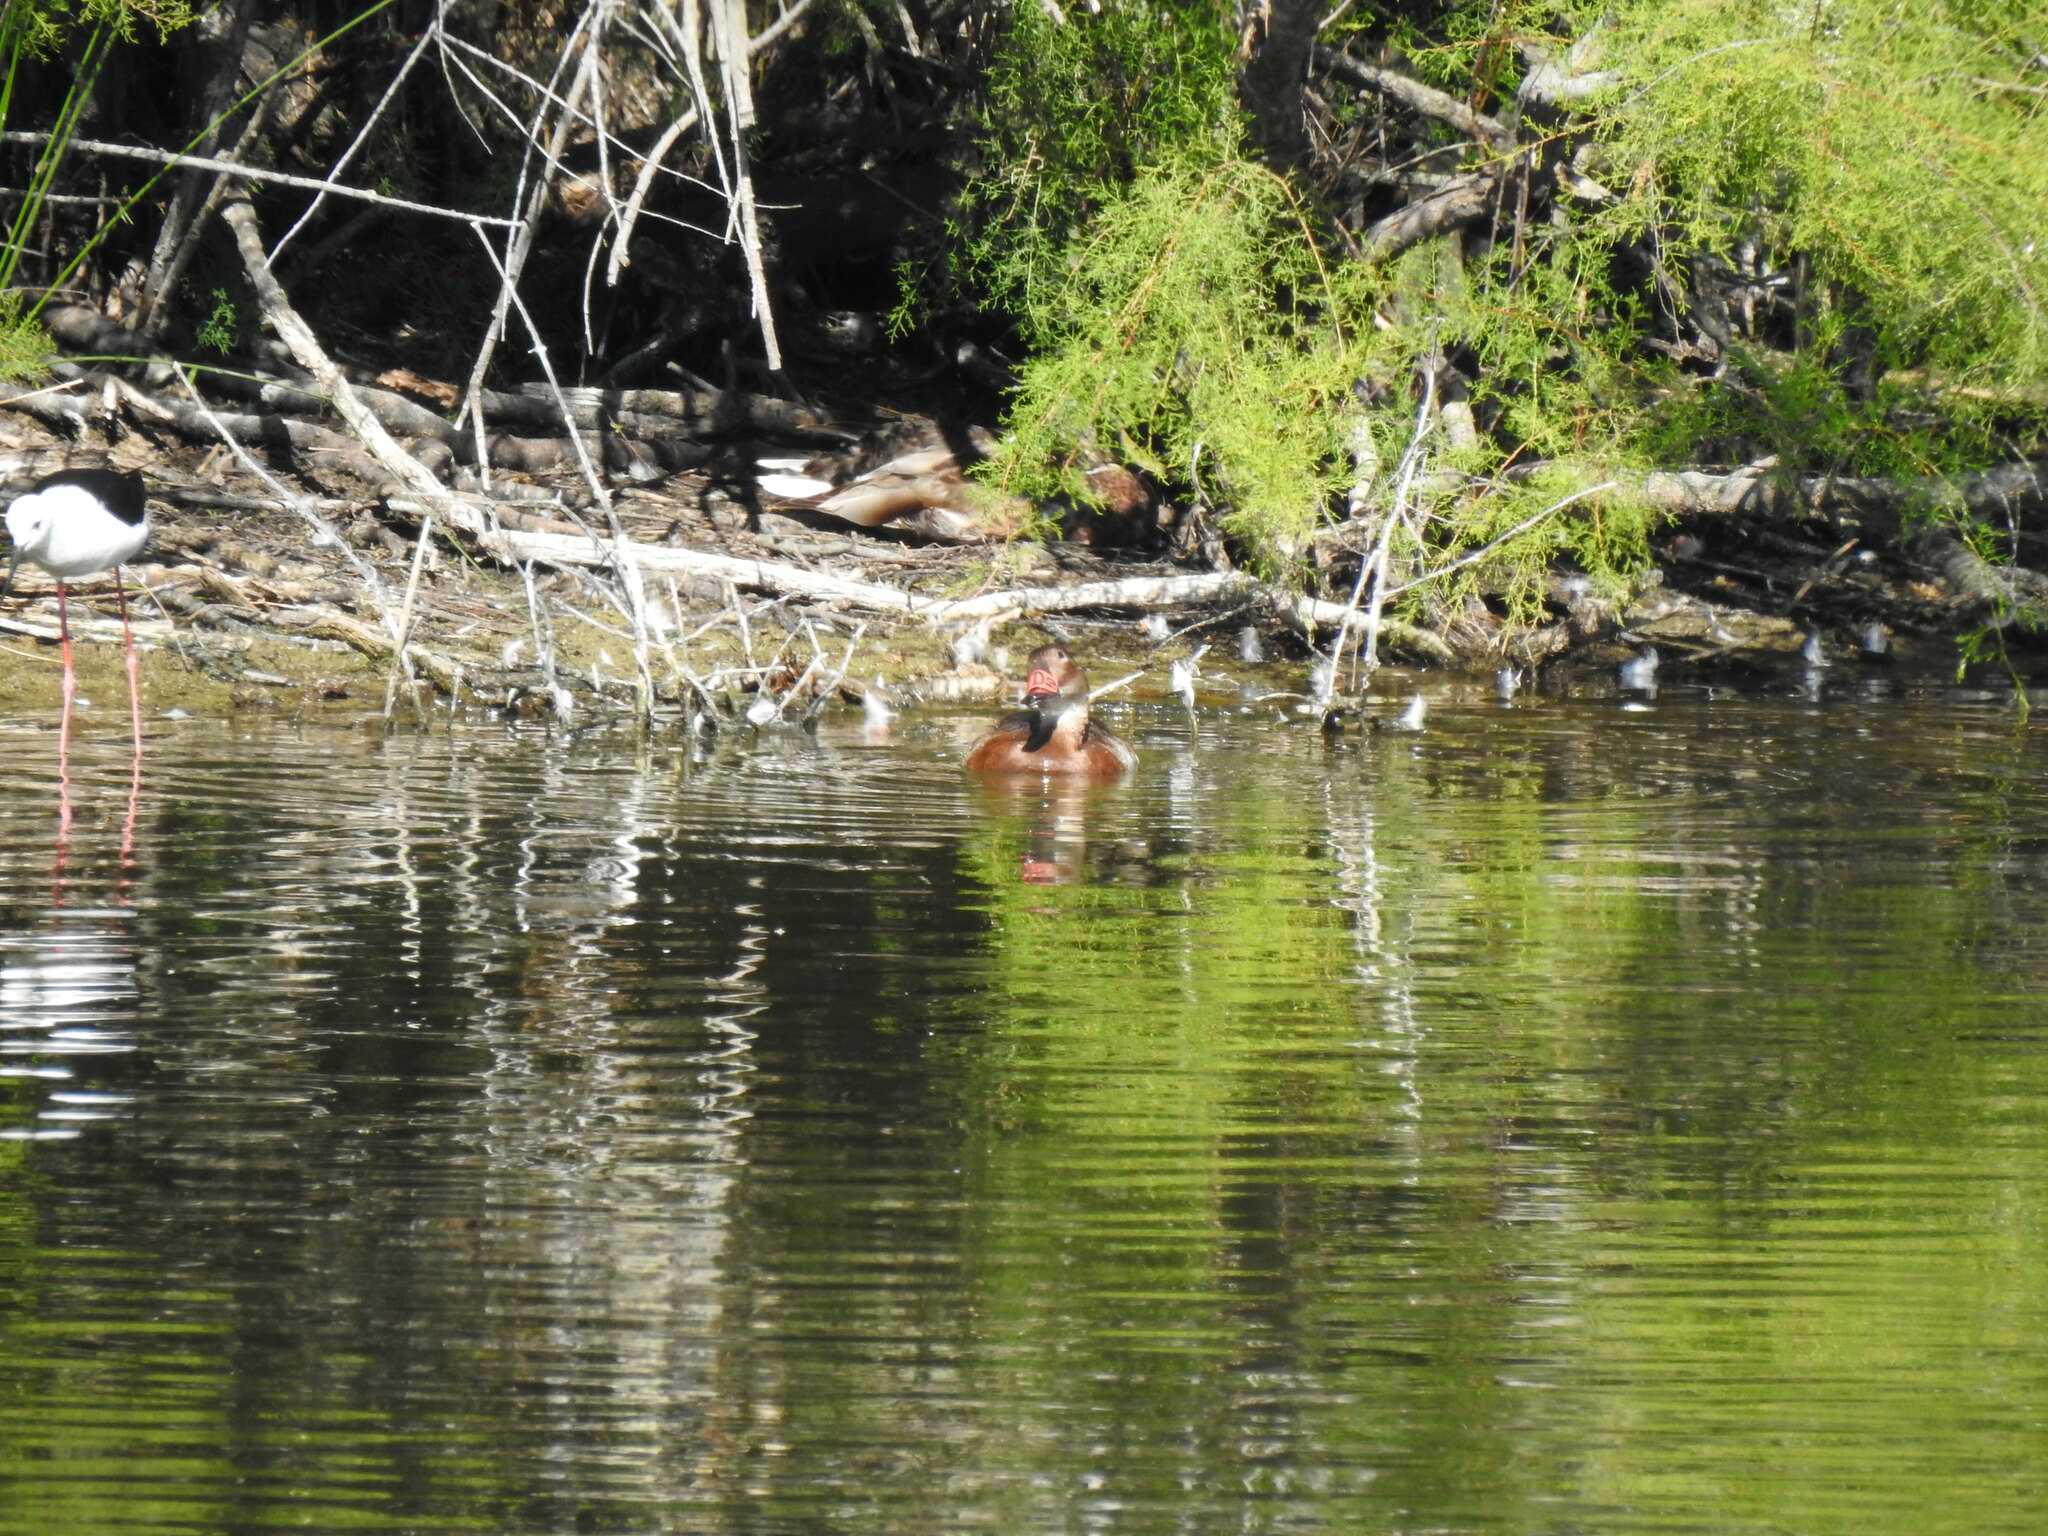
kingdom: Animalia
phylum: Chordata
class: Aves
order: Anseriformes
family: Anatidae
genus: Aythya
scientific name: Aythya ferina
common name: Common pochard
